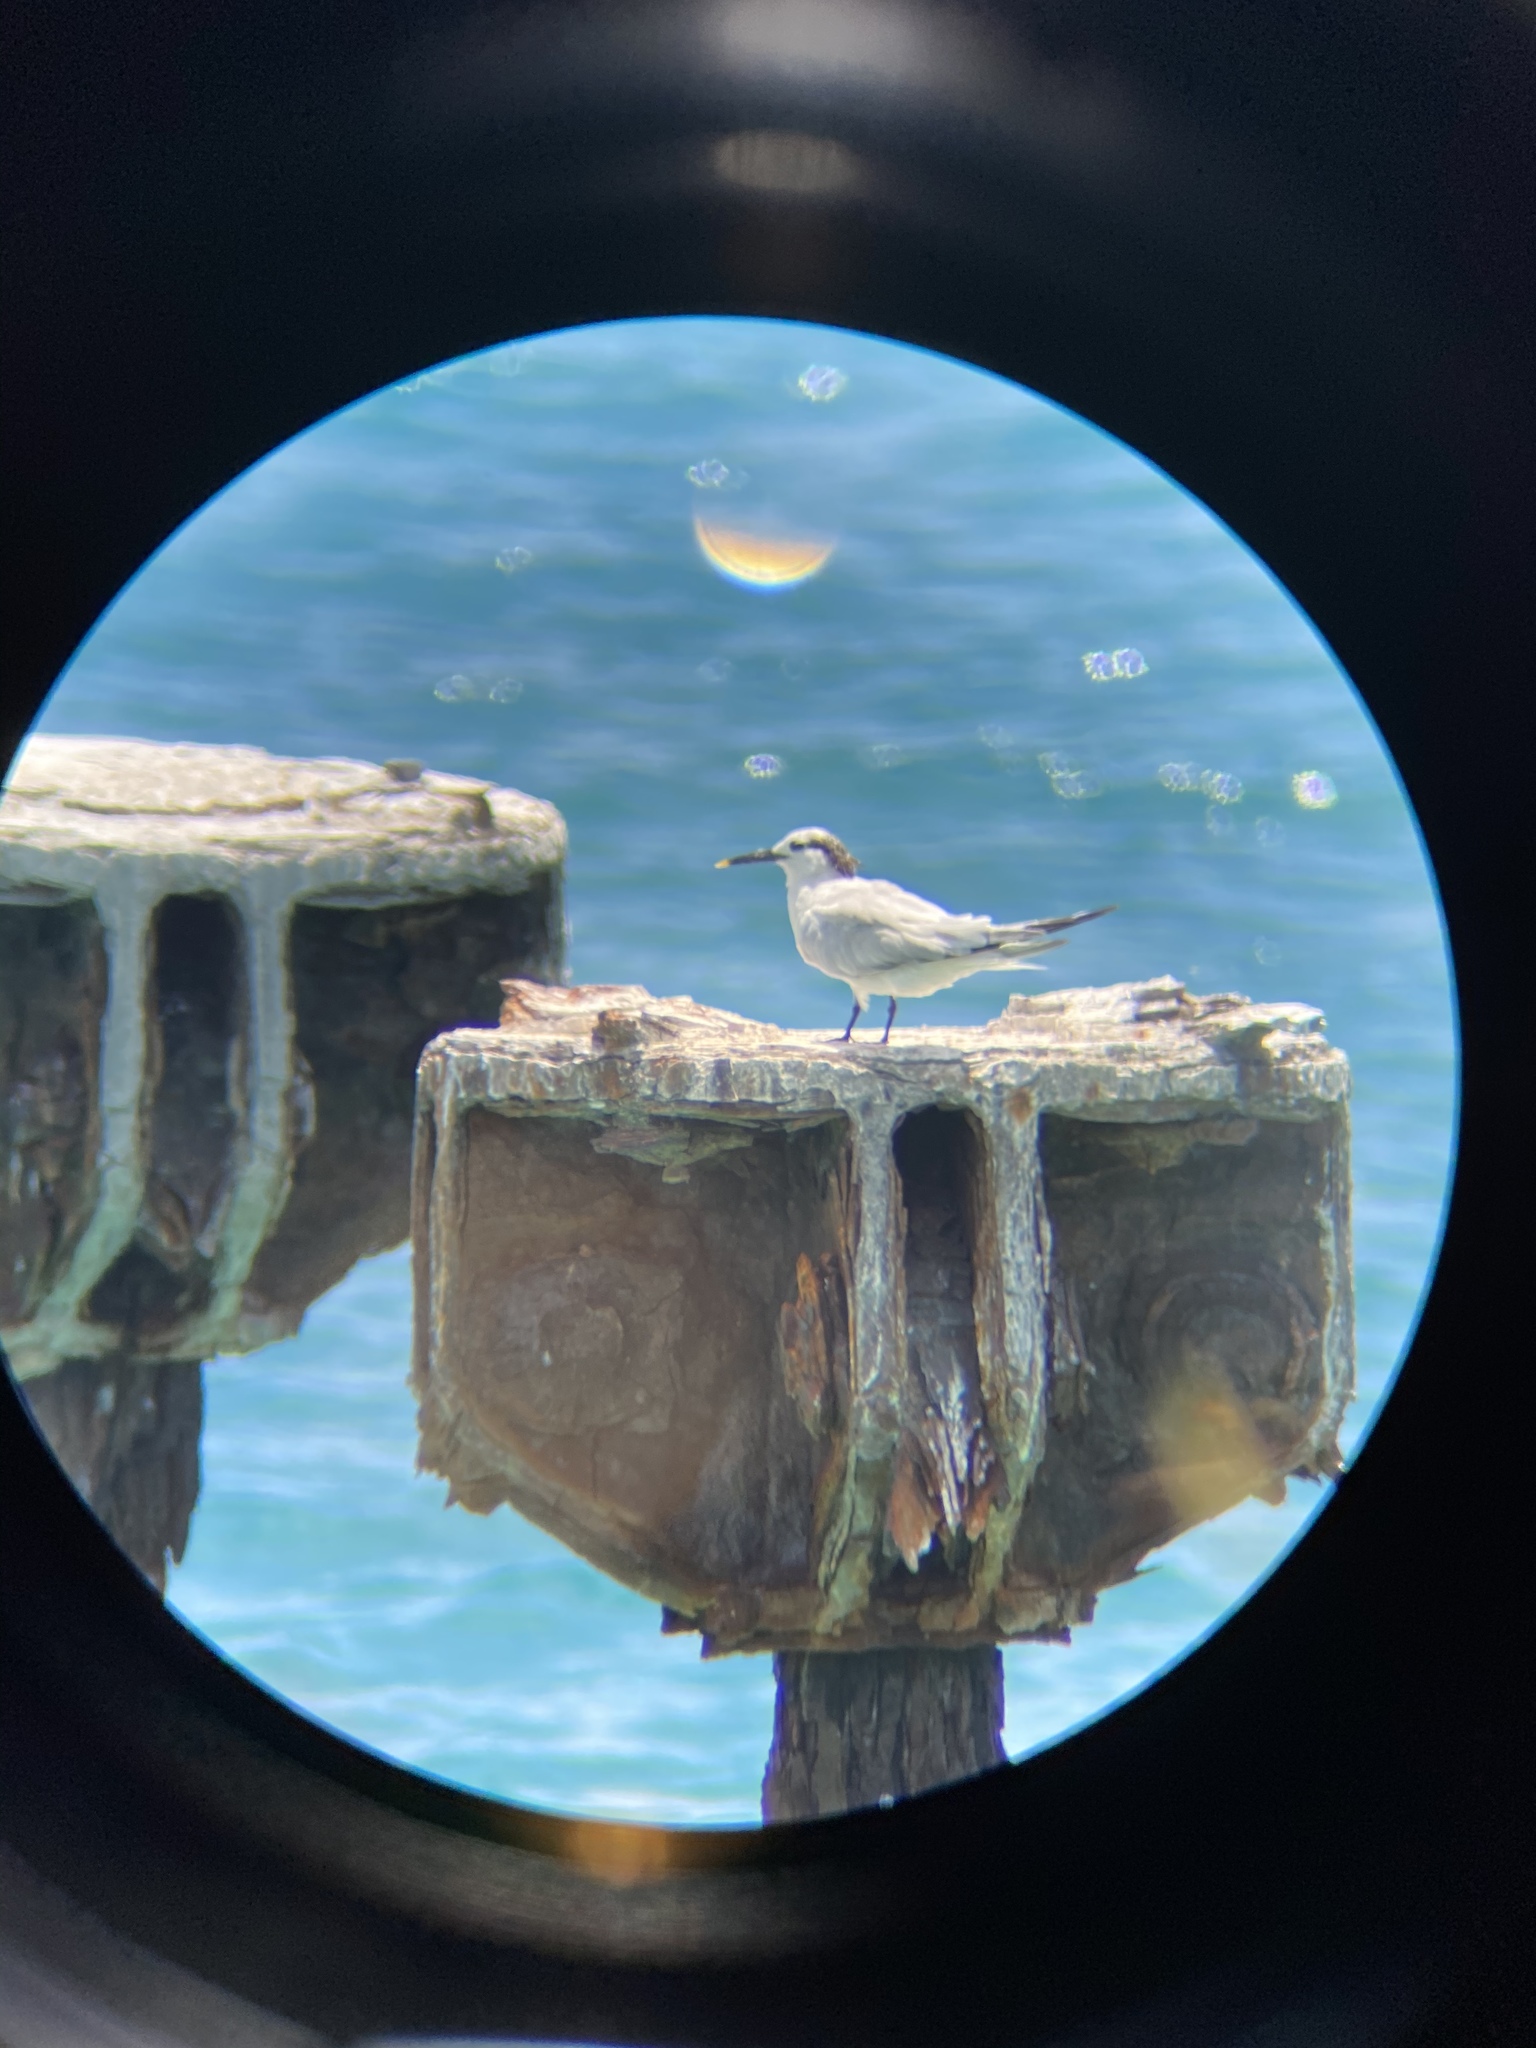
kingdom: Animalia
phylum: Chordata
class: Aves
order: Charadriiformes
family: Laridae
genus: Thalasseus
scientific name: Thalasseus sandvicensis
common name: Sandwich tern
